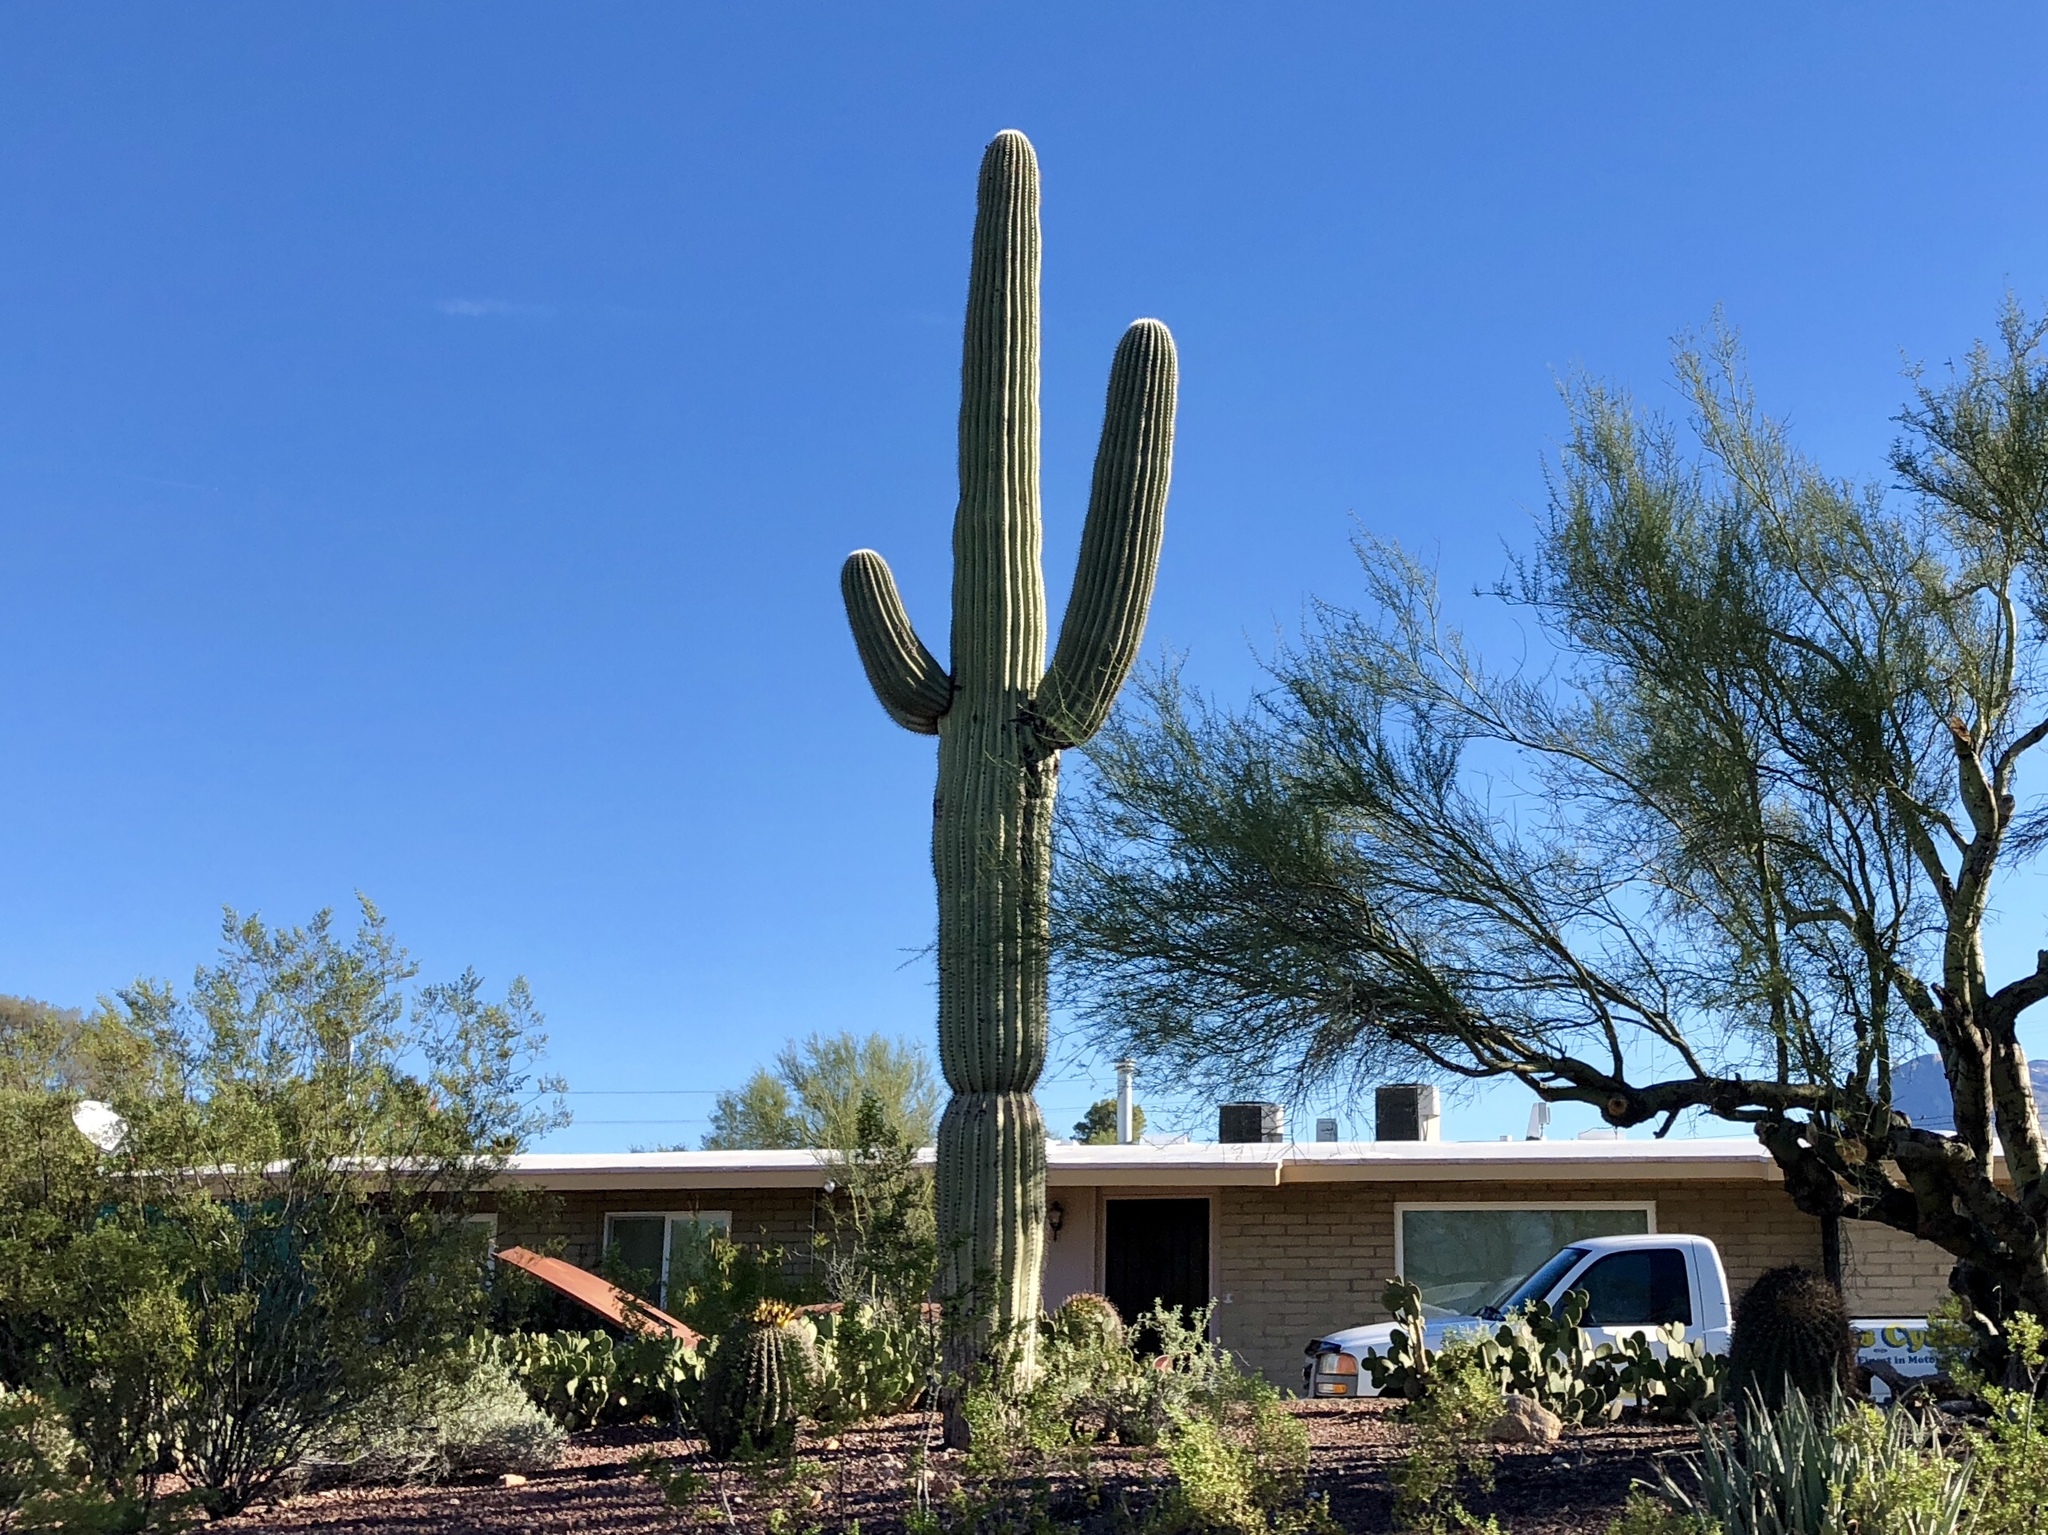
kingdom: Plantae
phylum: Tracheophyta
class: Magnoliopsida
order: Caryophyllales
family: Cactaceae
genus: Carnegiea
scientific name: Carnegiea gigantea
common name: Saguaro
